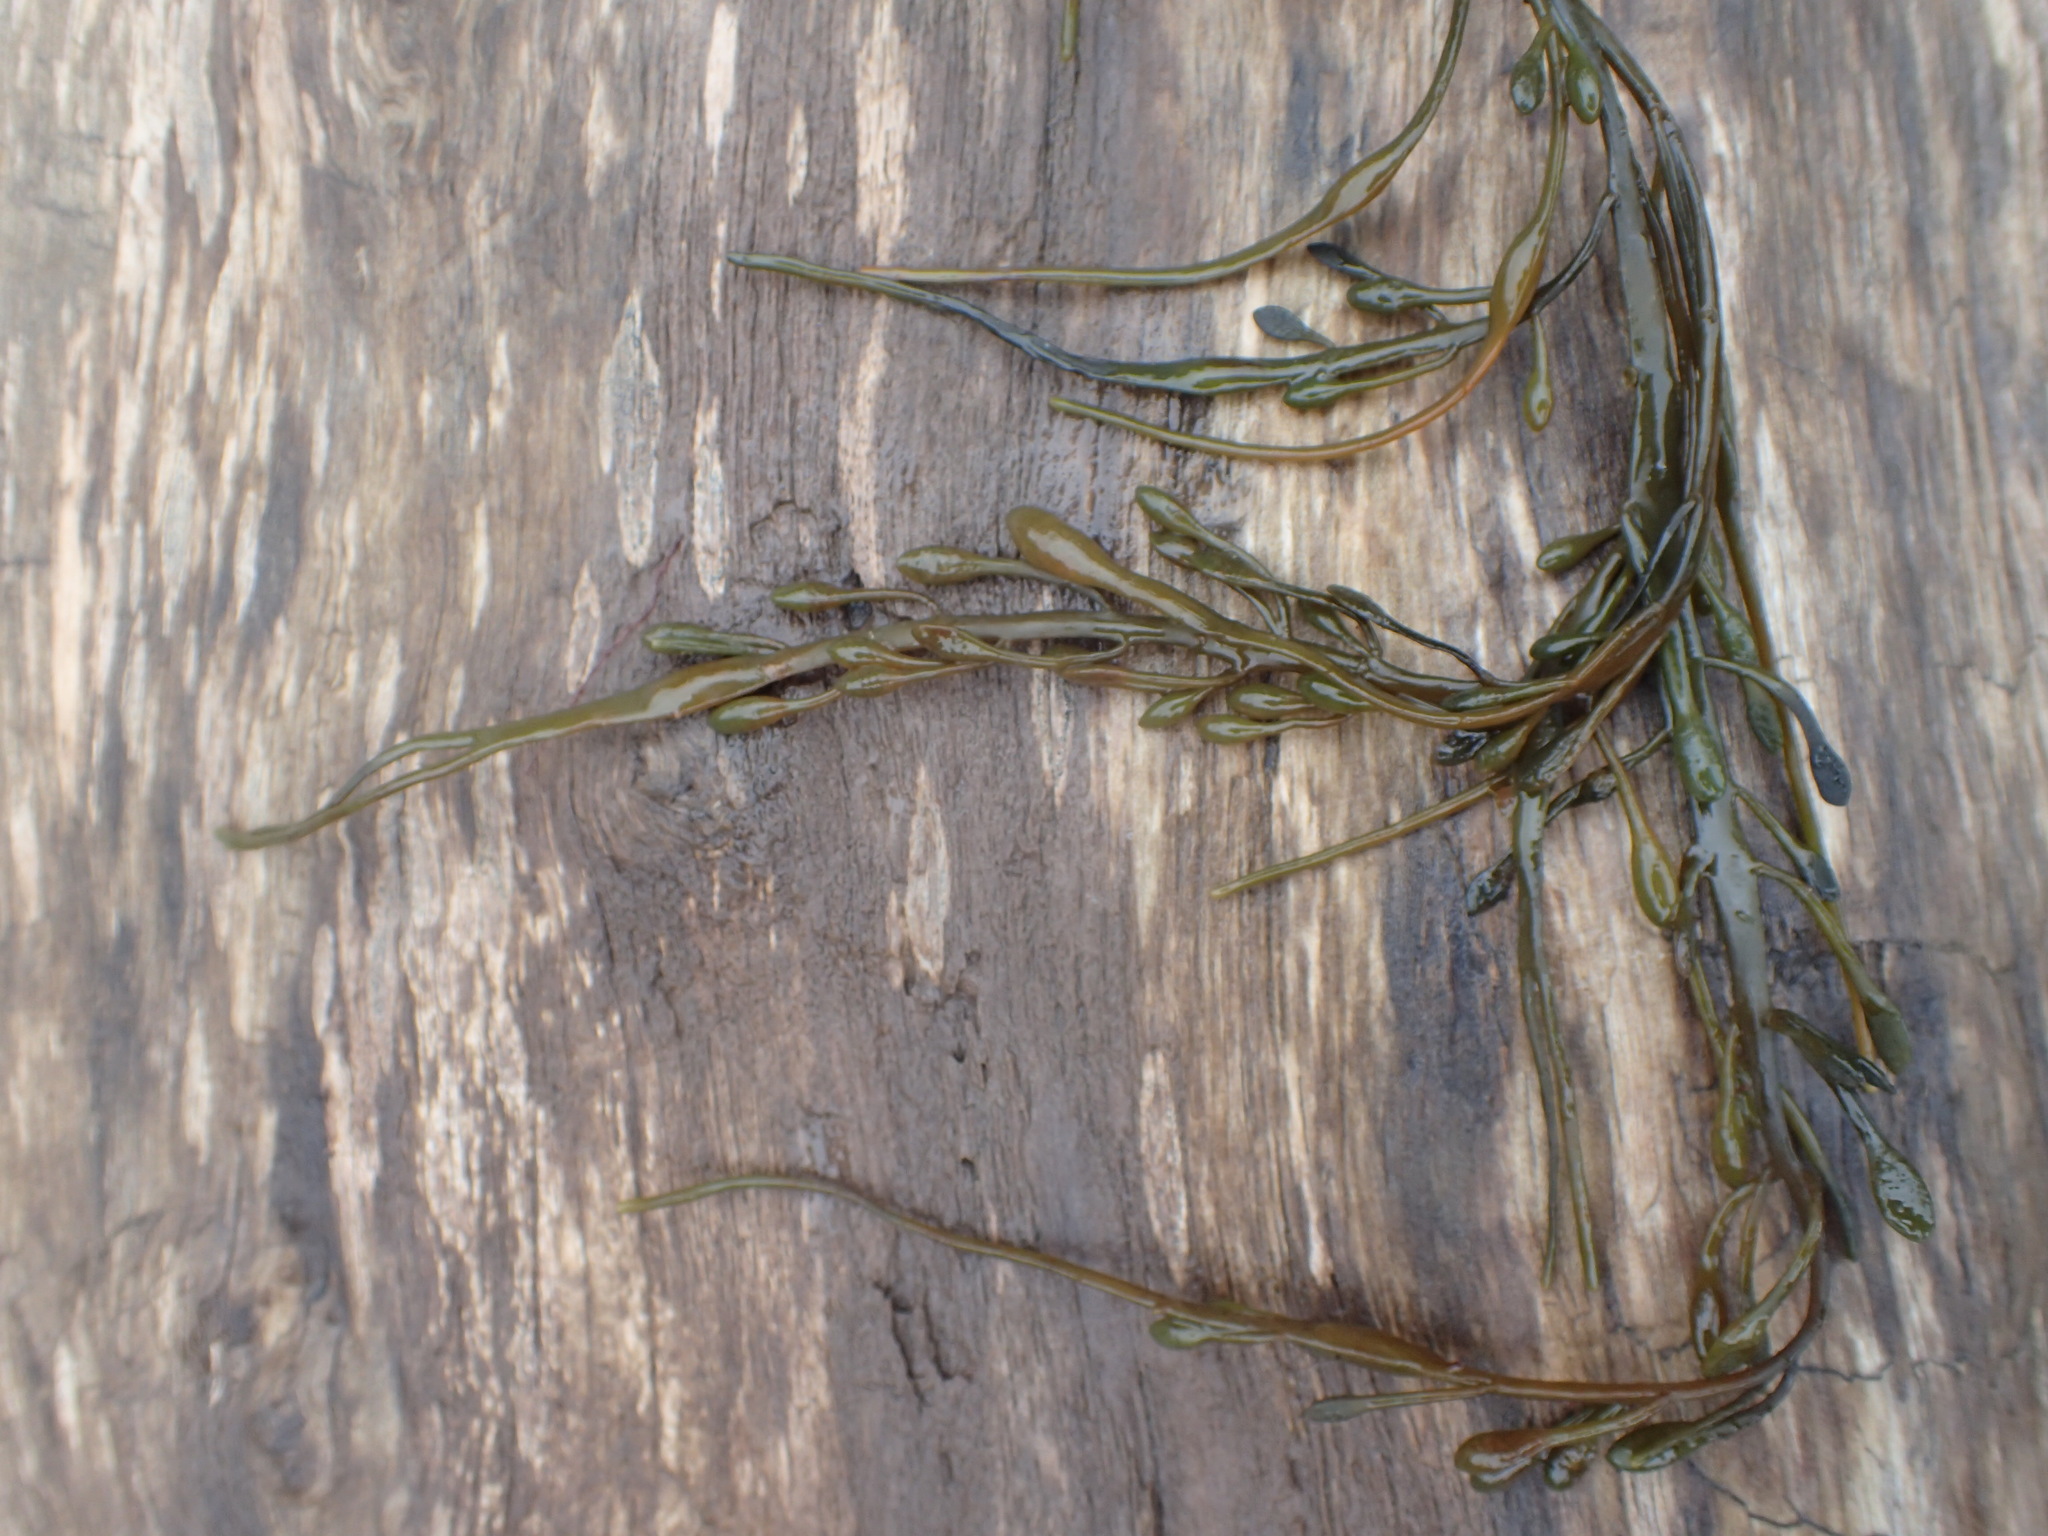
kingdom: Chromista
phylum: Ochrophyta
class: Phaeophyceae
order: Fucales
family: Fucaceae
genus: Ascophyllum
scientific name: Ascophyllum nodosum
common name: Knotted wrack
